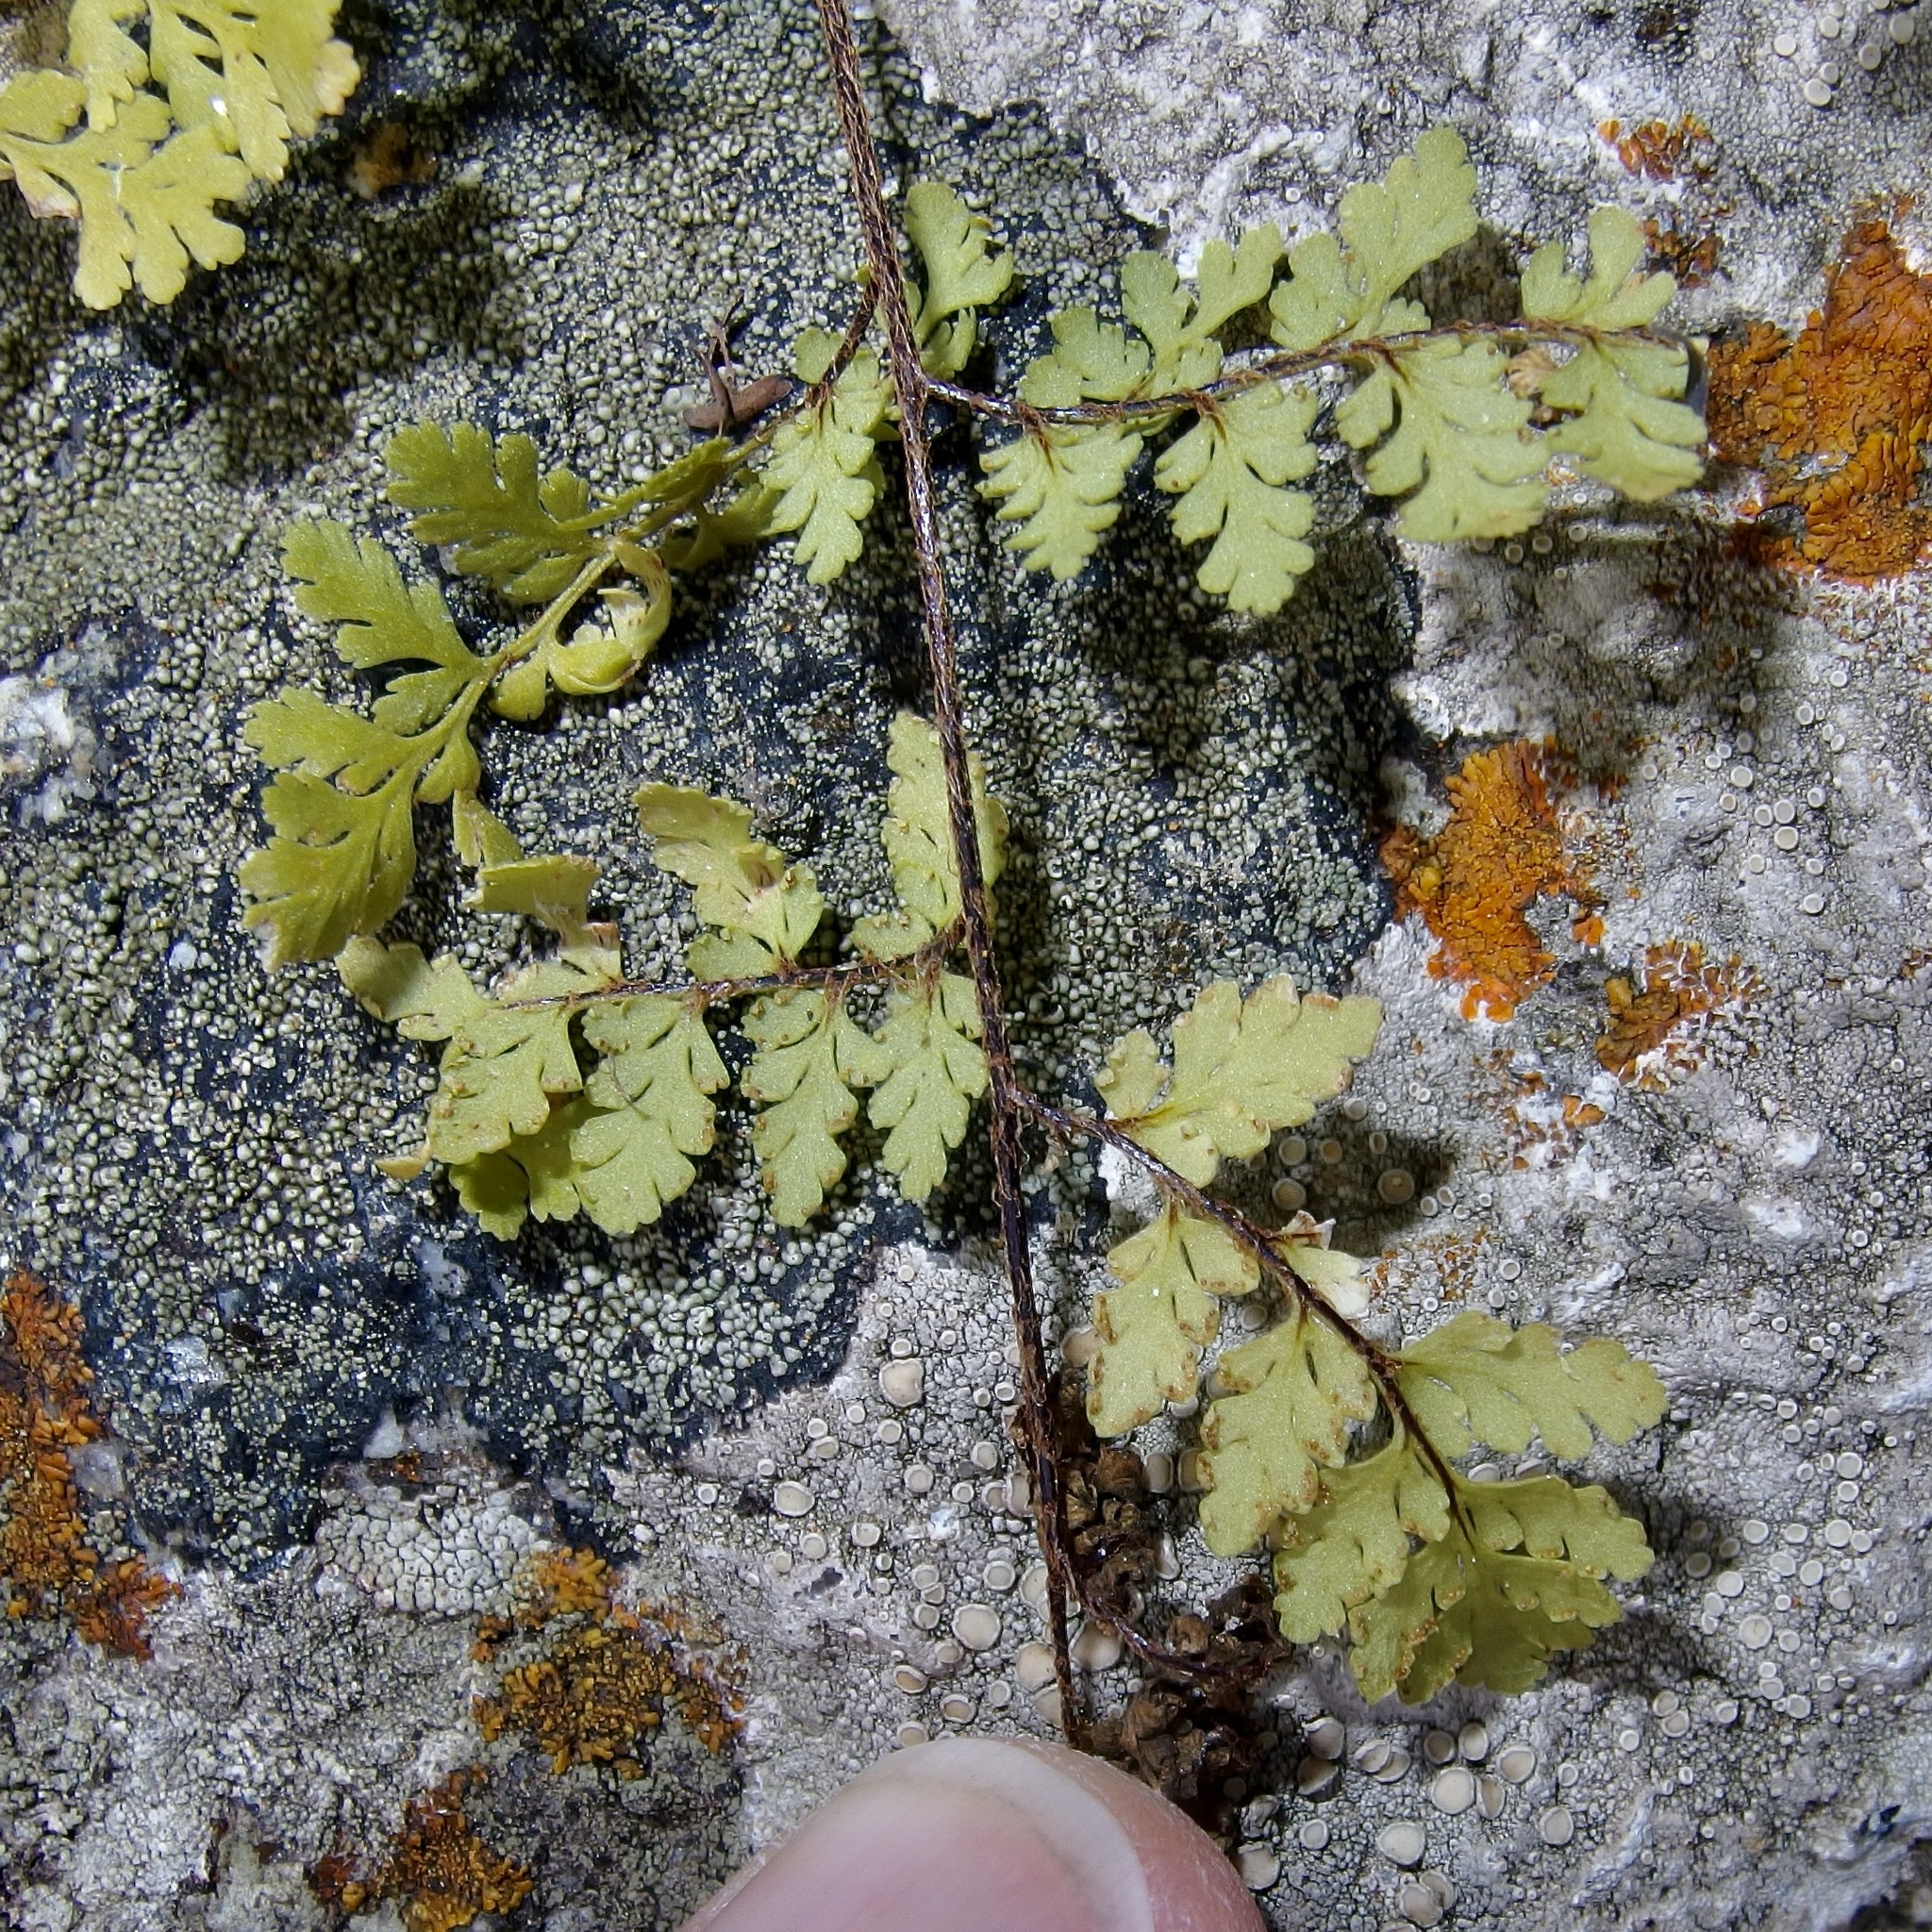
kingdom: Plantae
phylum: Tracheophyta
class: Polypodiopsida
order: Polypodiales
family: Pteridaceae
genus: Myriopteris
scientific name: Myriopteris peninsularis
